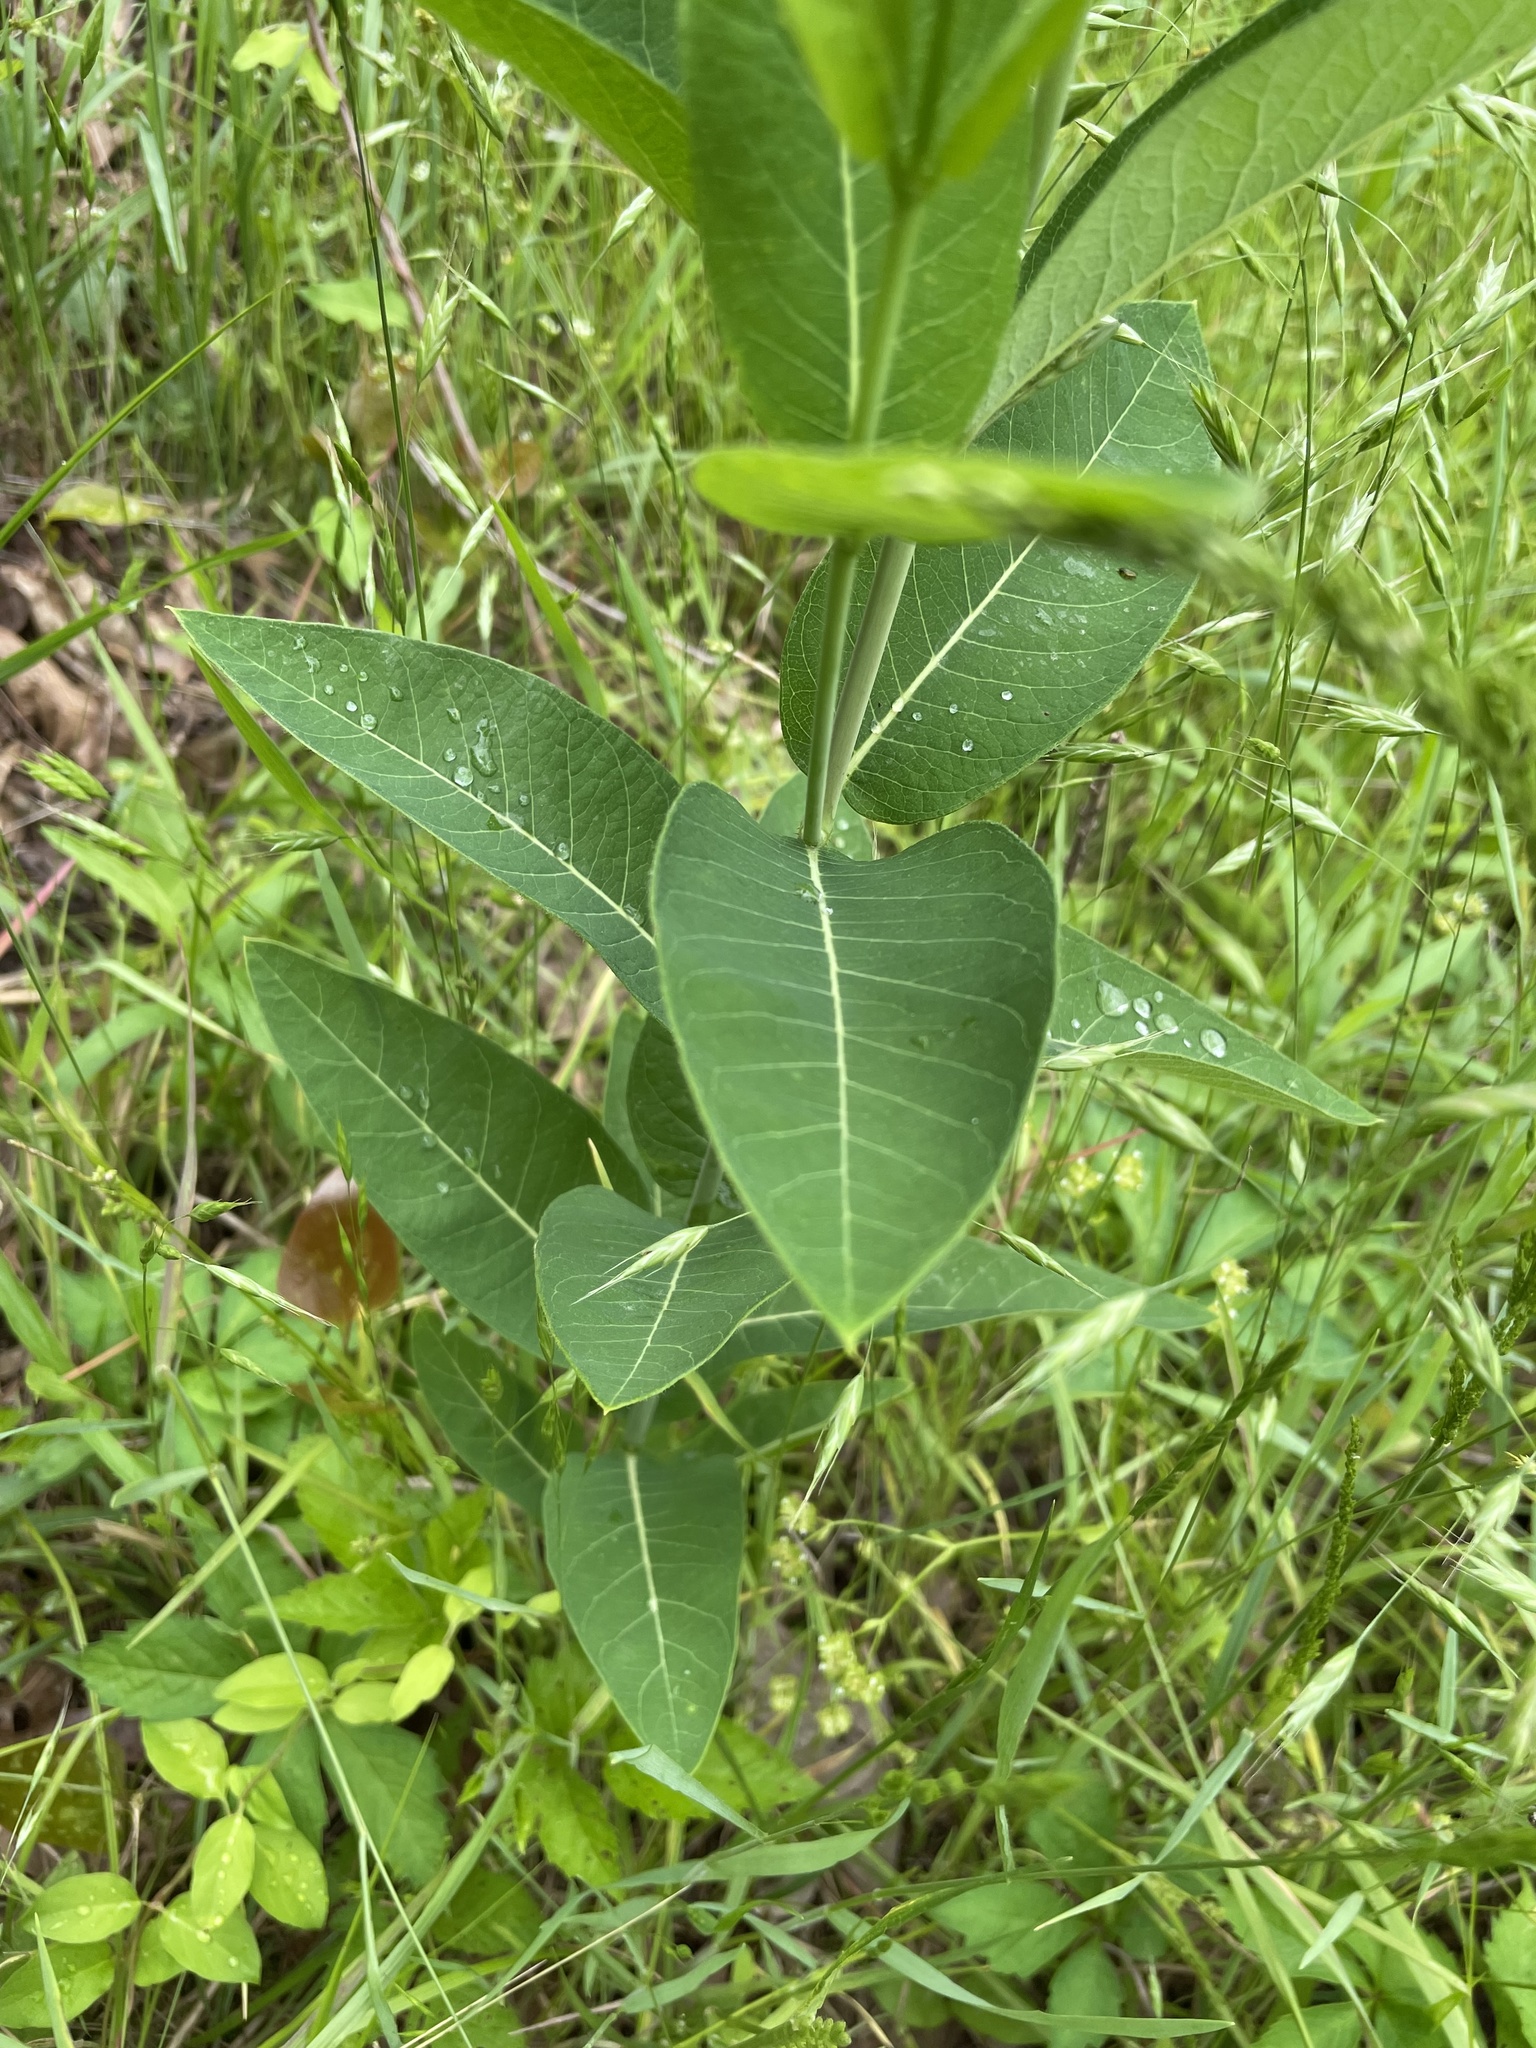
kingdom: Plantae
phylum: Tracheophyta
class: Magnoliopsida
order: Gentianales
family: Apocynaceae
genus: Apocynum
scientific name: Apocynum cannabinum
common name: Hemp dogbane
